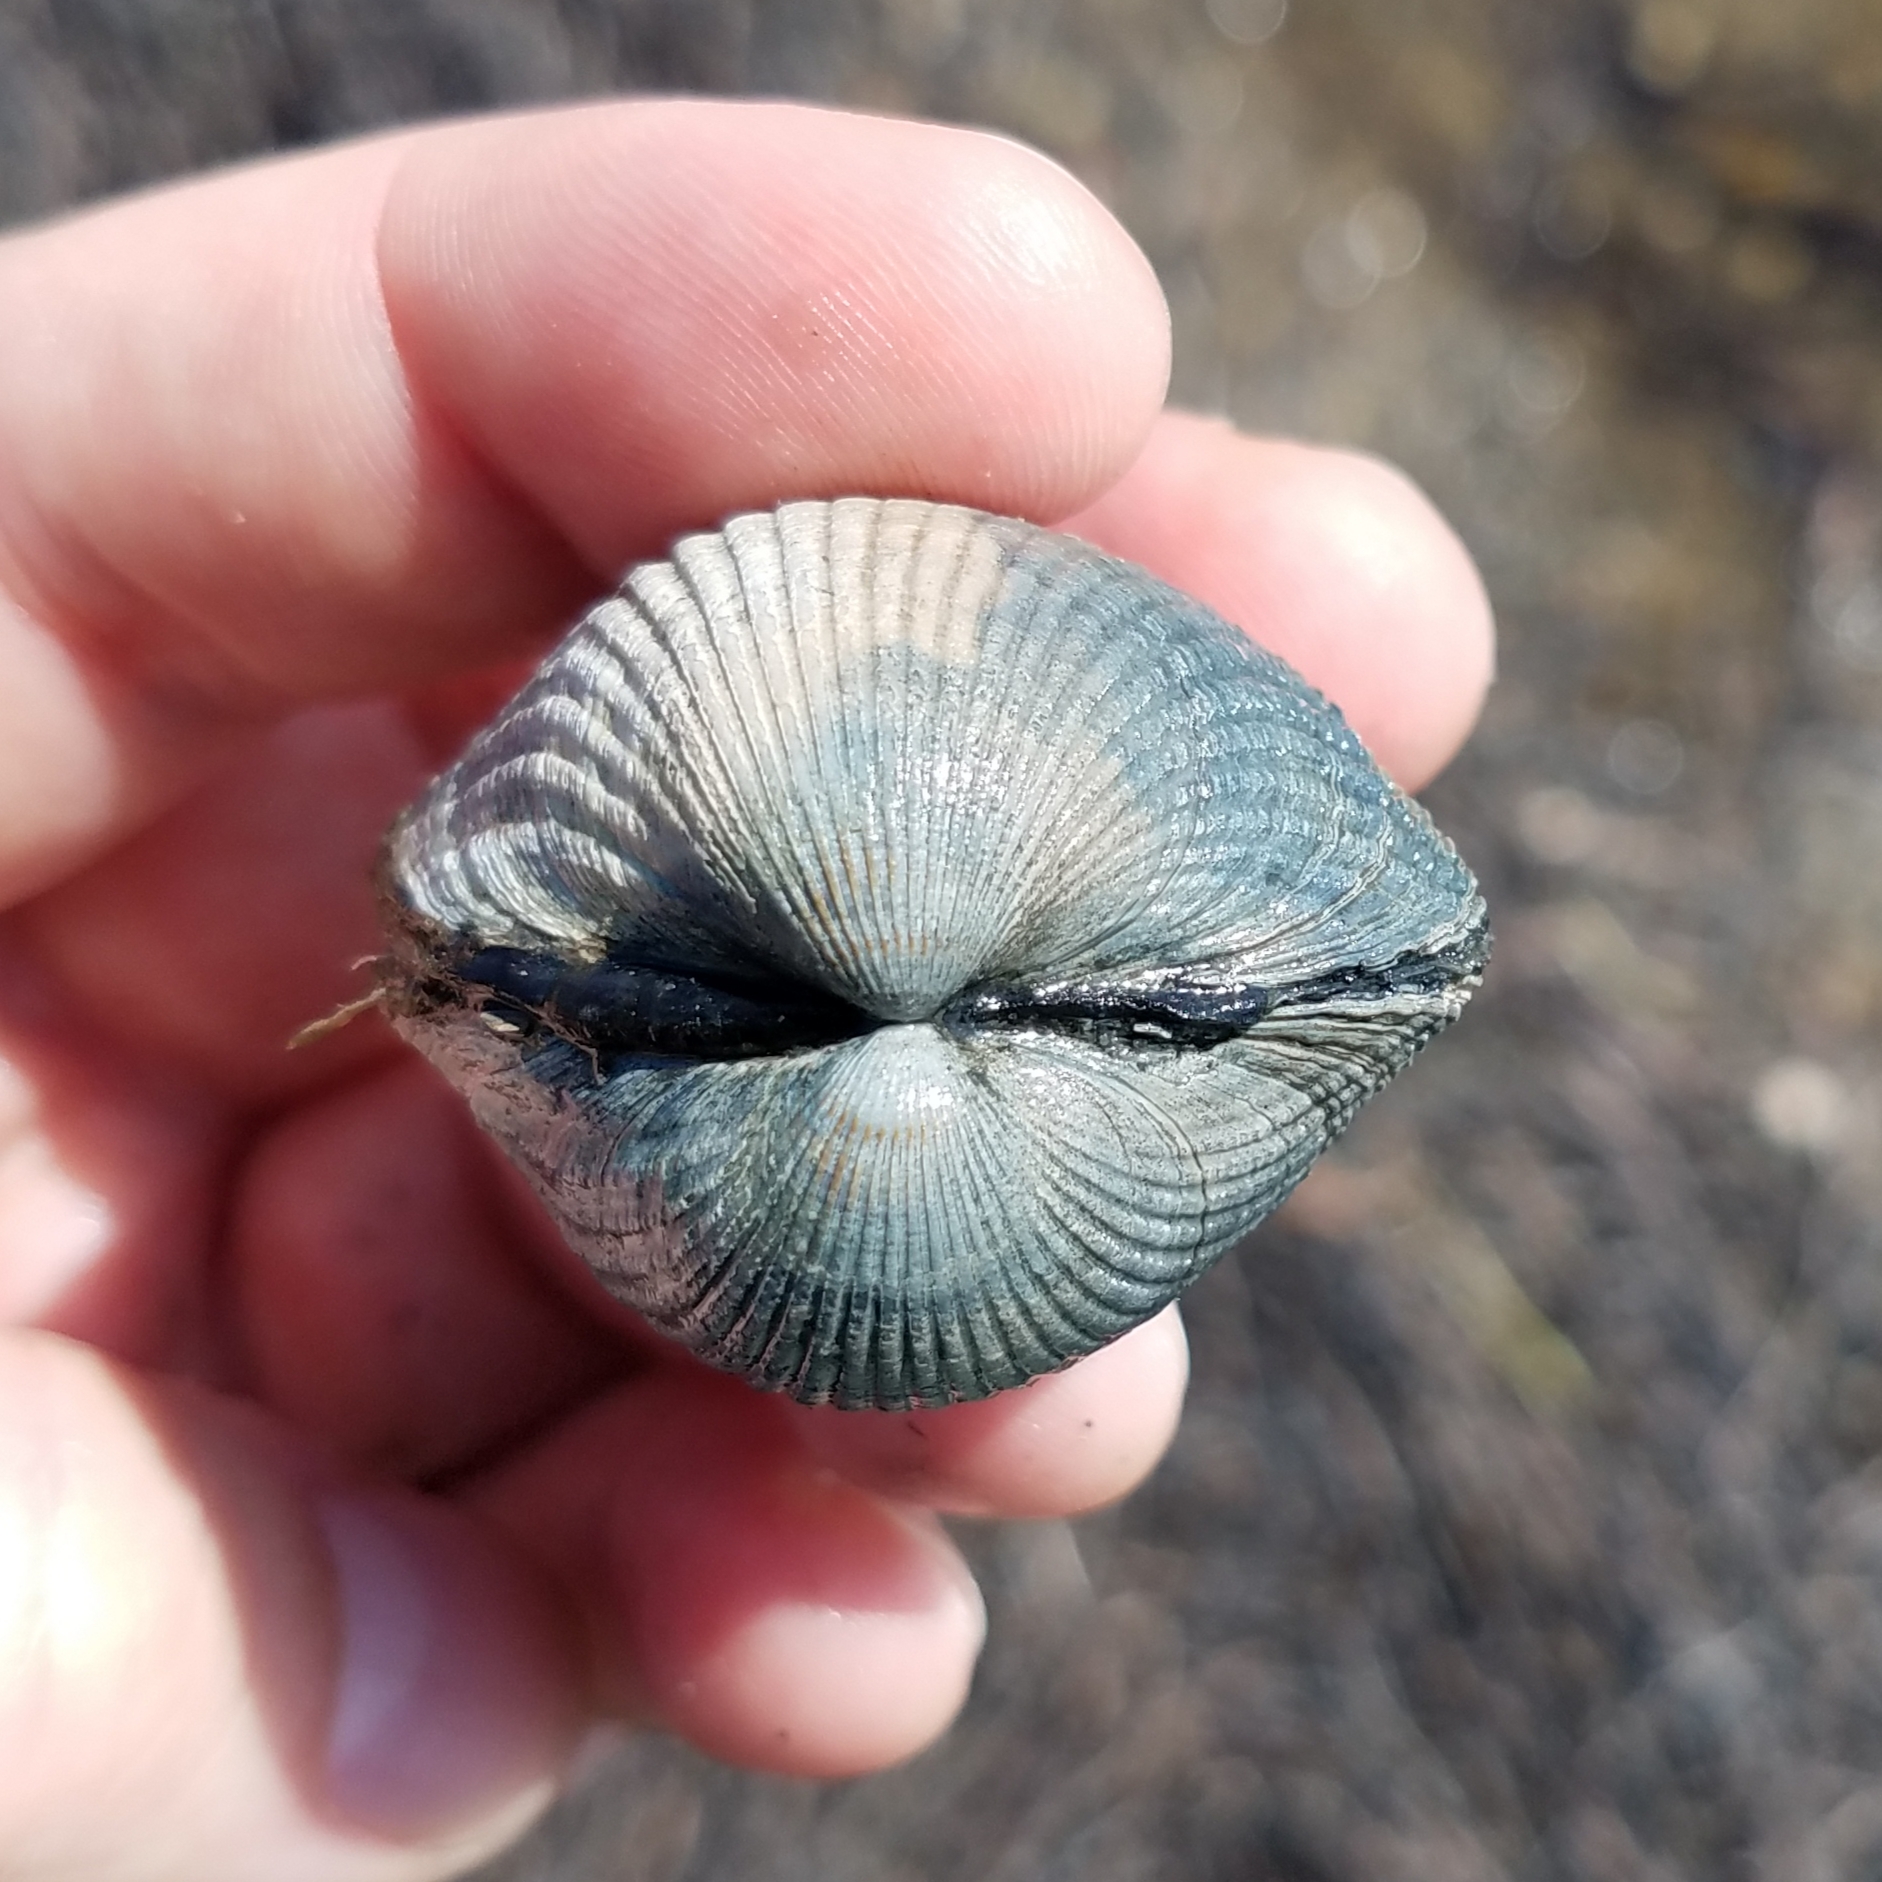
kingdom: Animalia
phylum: Mollusca
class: Bivalvia
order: Cardiida
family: Cardiidae
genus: Cerastoderma
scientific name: Cerastoderma edule
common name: Common cockle
